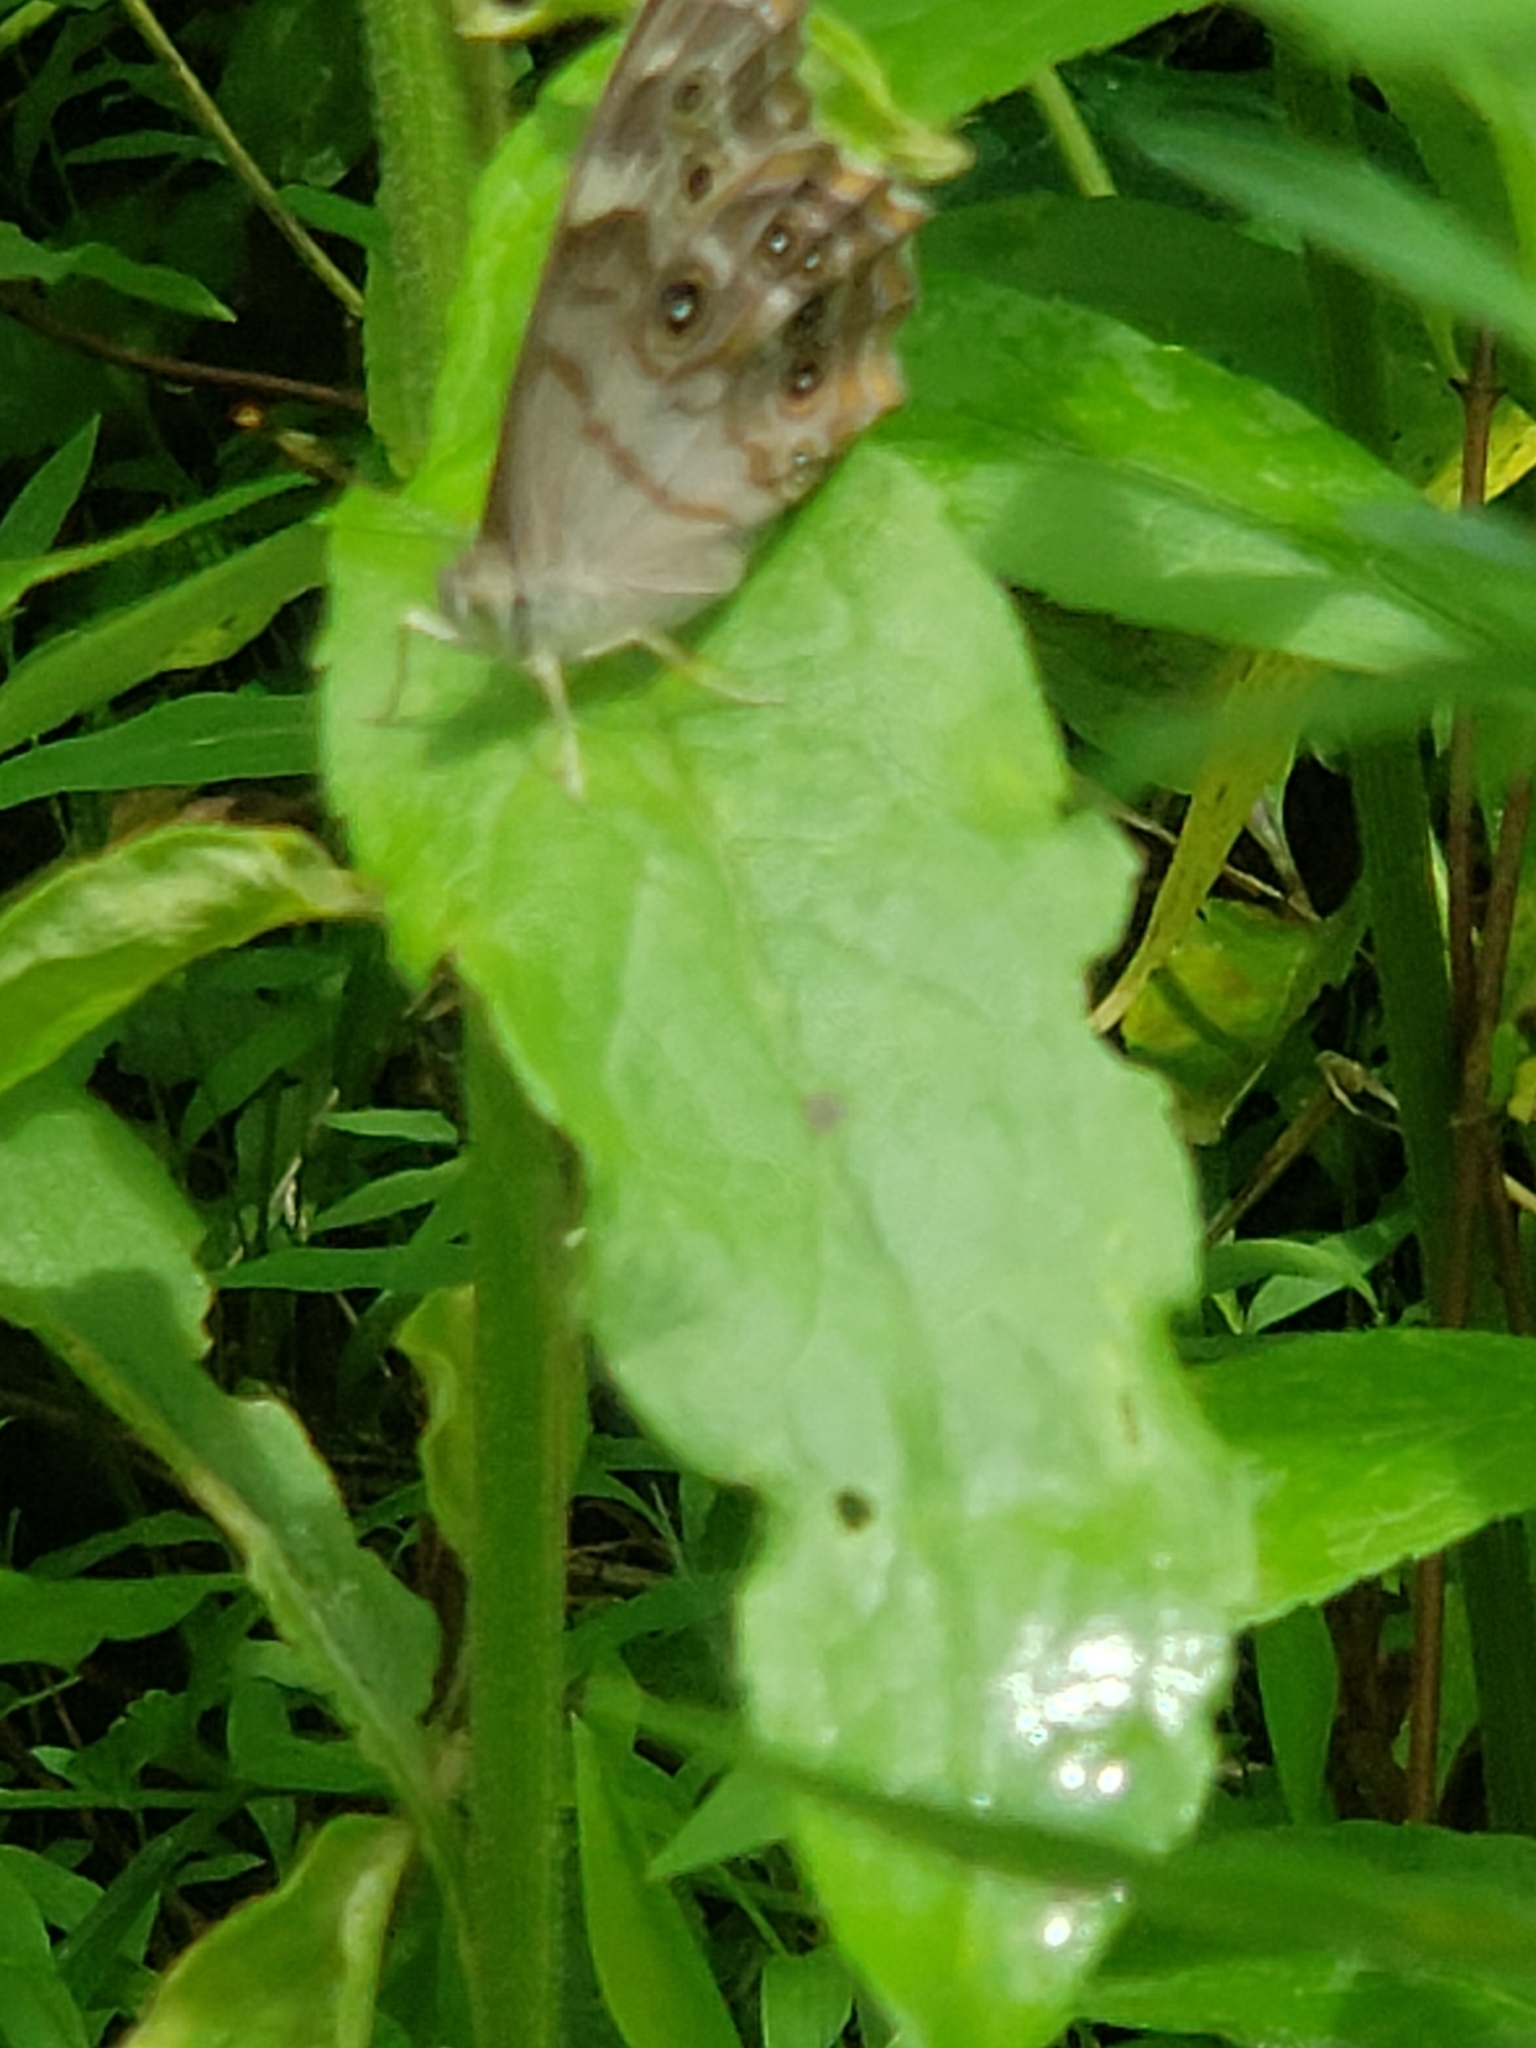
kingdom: Animalia
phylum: Arthropoda
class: Insecta
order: Lepidoptera
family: Nymphalidae
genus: Lethe
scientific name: Lethe anthedon
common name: Northern pearly-eye
